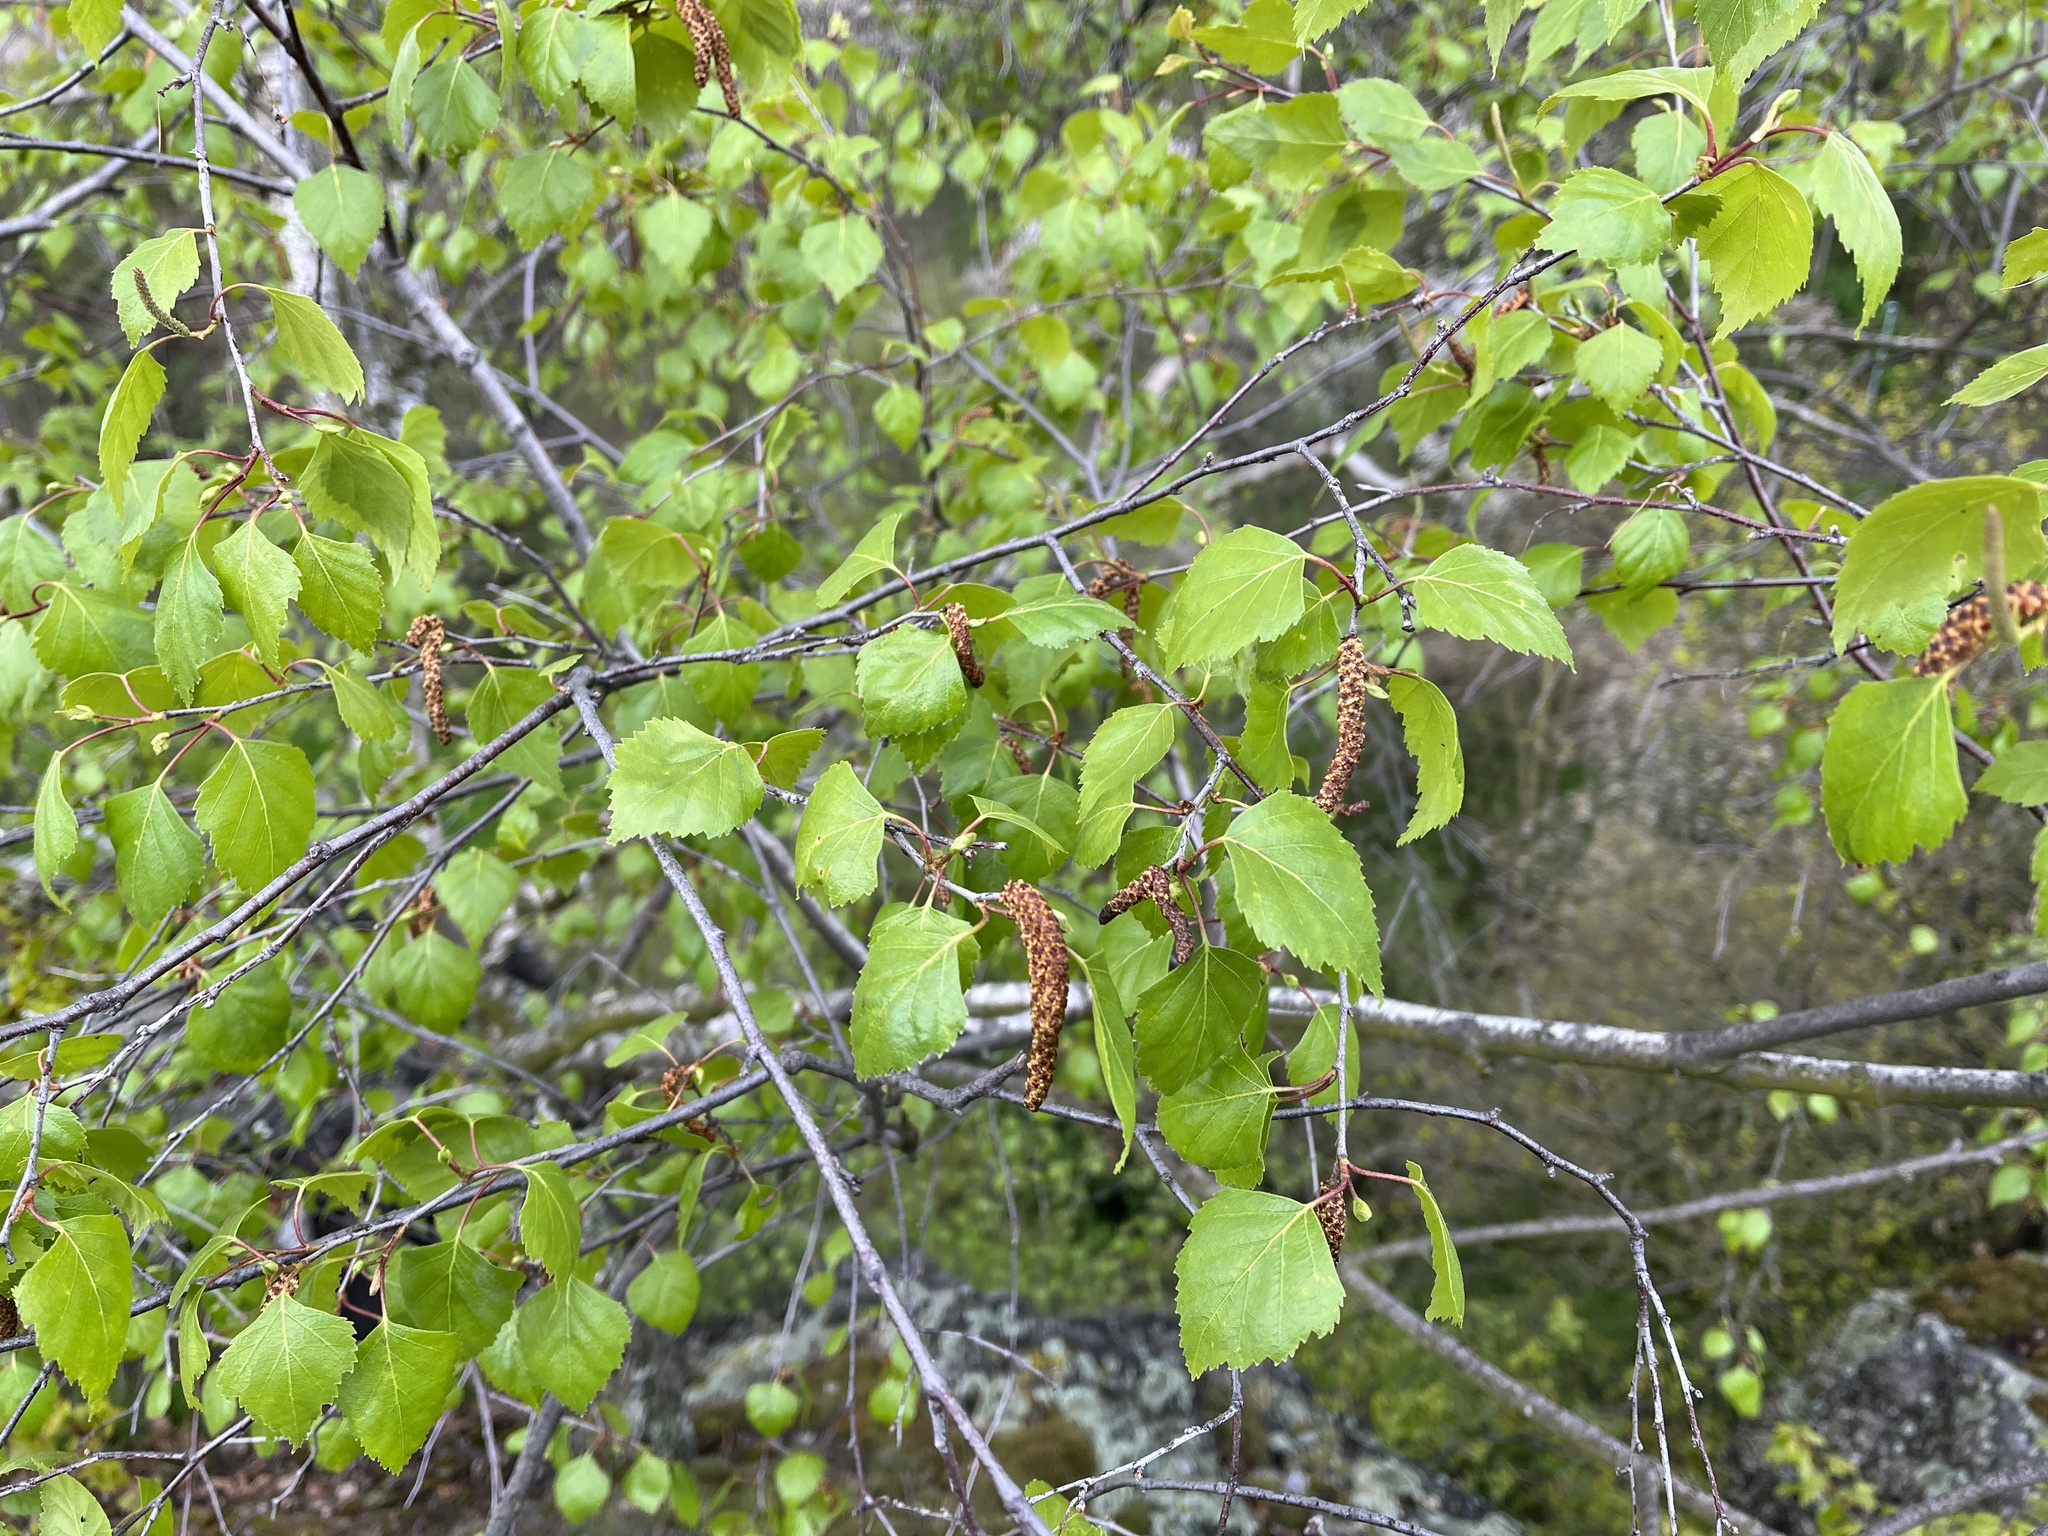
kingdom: Plantae
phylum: Tracheophyta
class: Magnoliopsida
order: Fagales
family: Betulaceae
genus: Betula
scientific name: Betula pendula
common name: Silver birch
